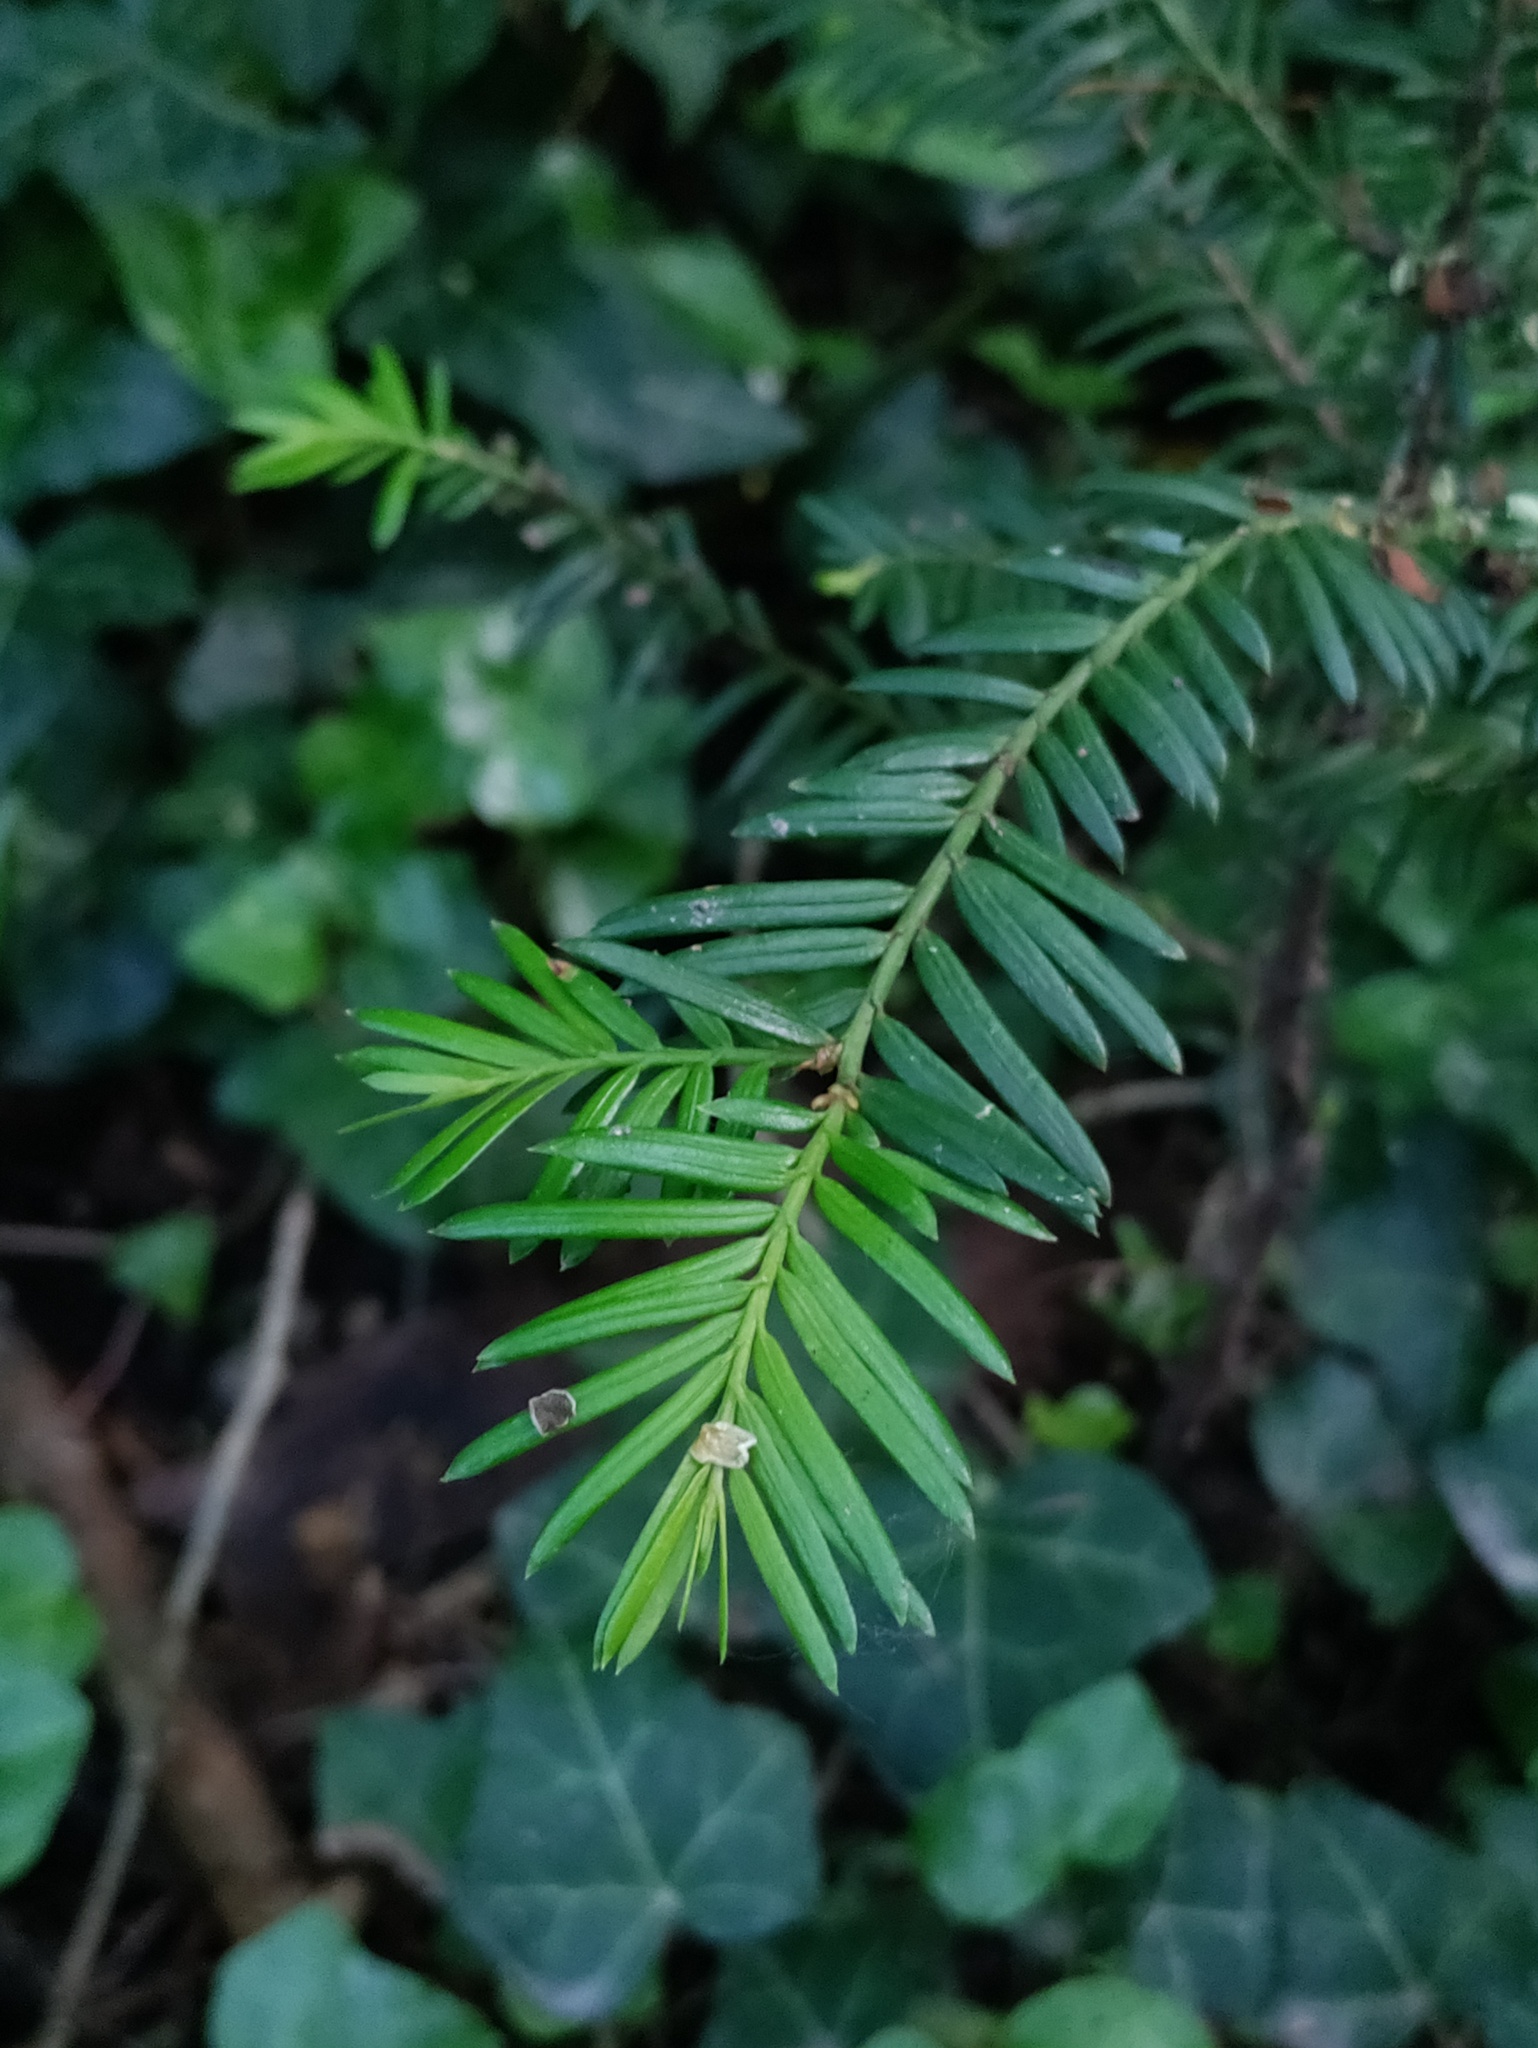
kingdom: Plantae
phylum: Tracheophyta
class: Pinopsida
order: Pinales
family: Taxaceae
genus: Taxus
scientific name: Taxus baccata
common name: Yew
